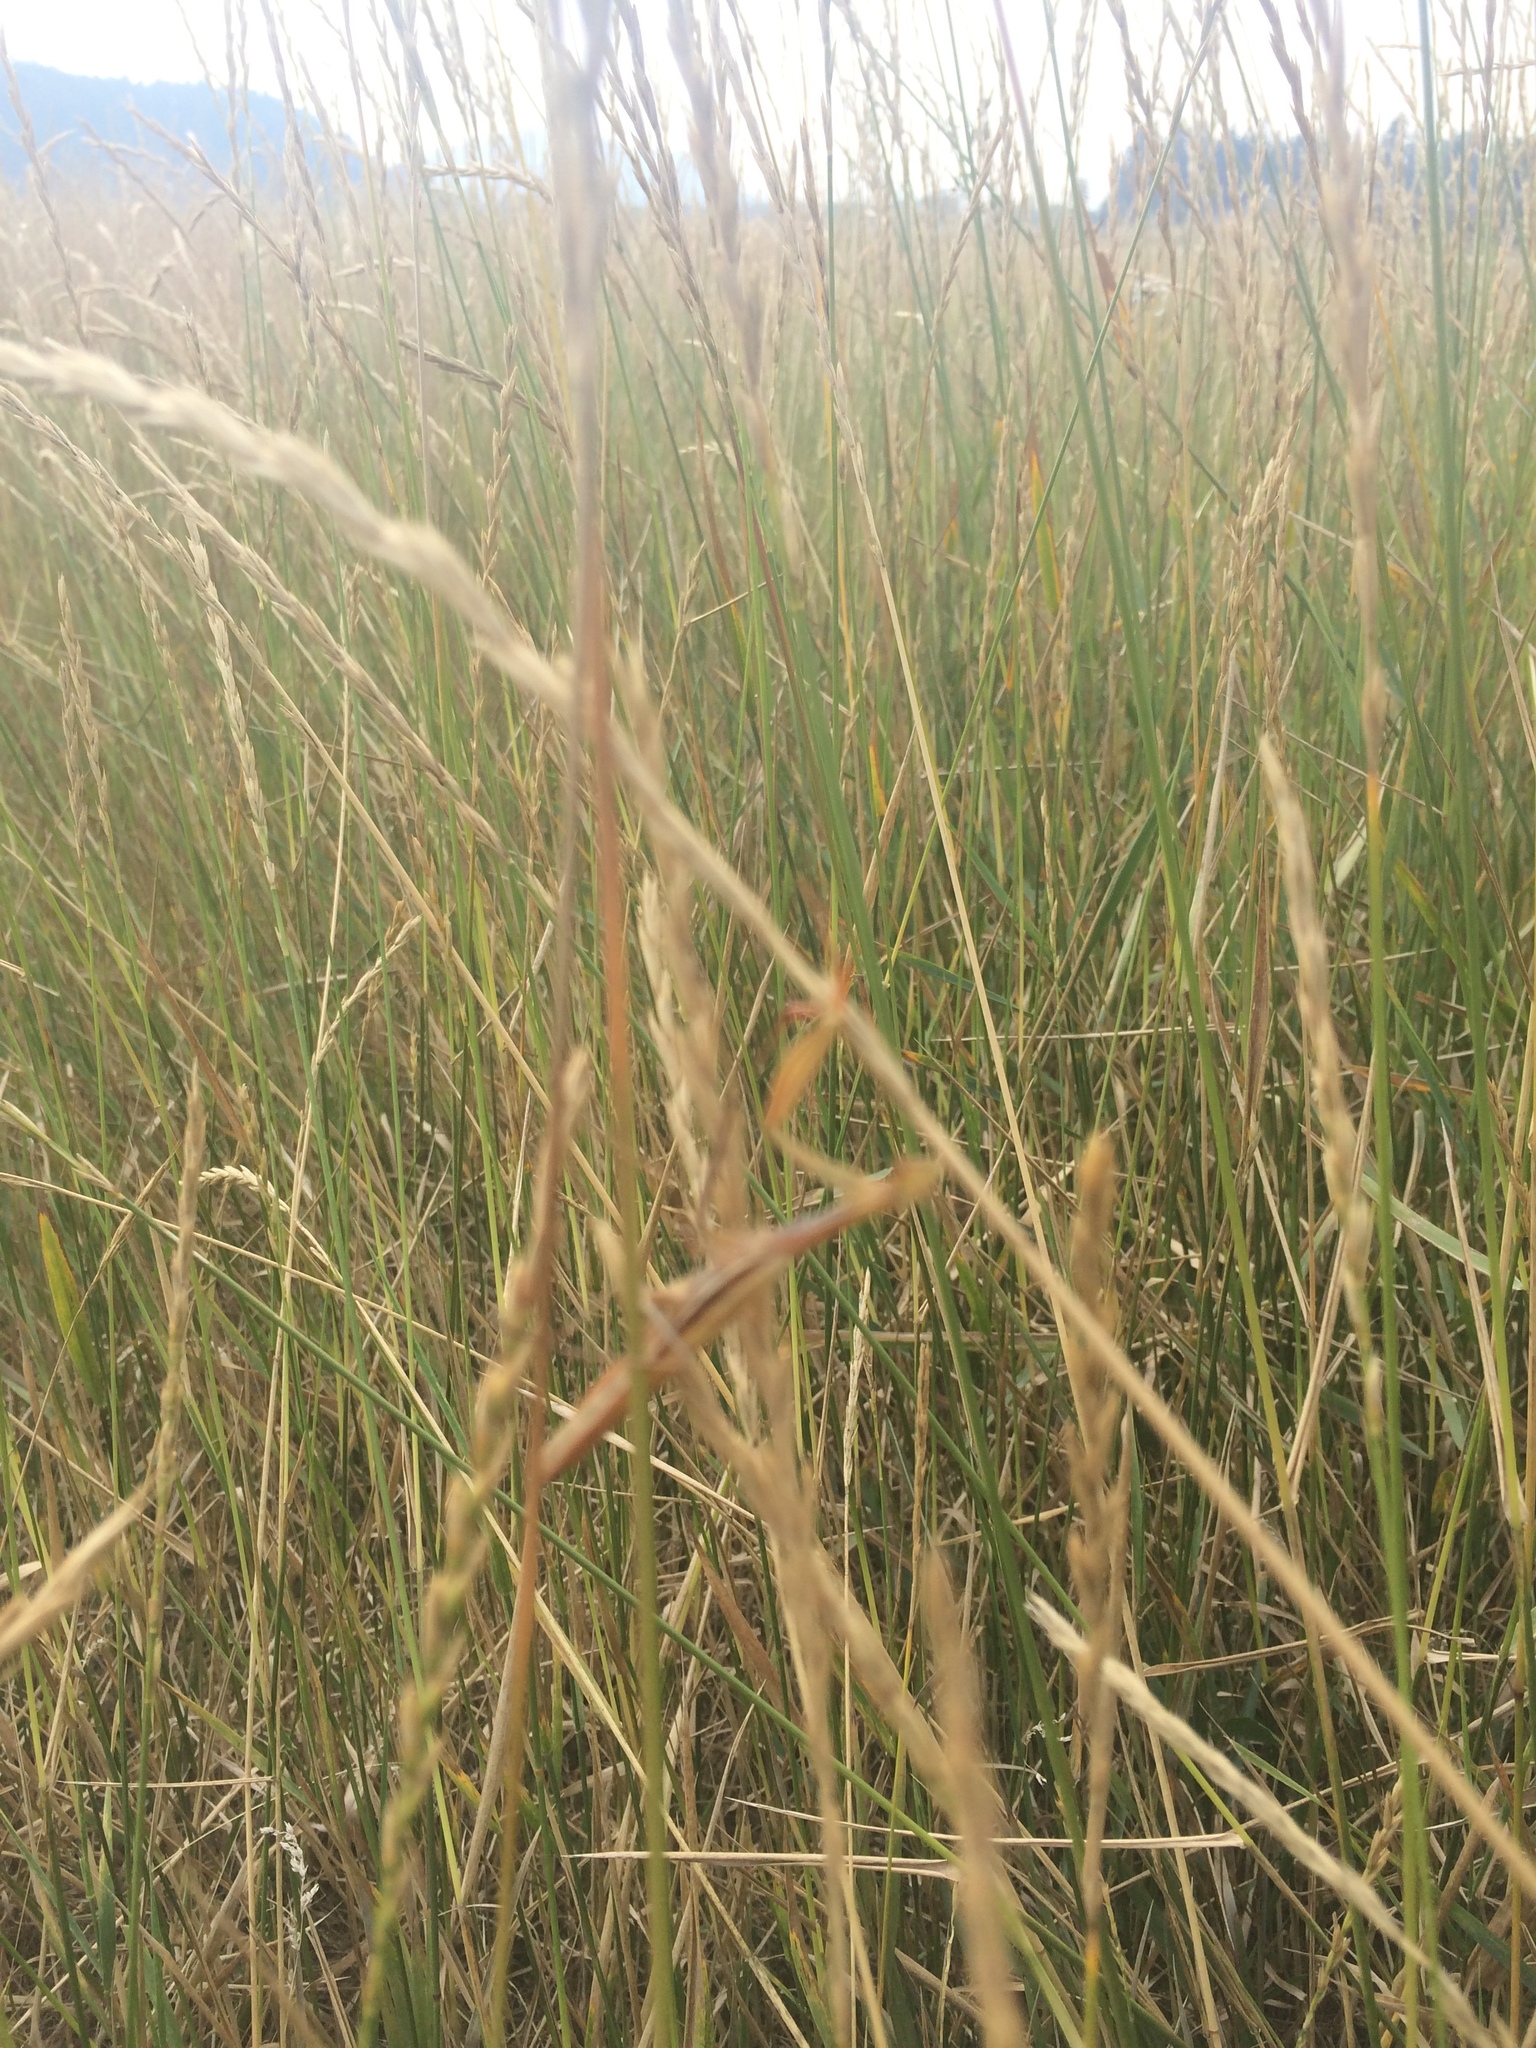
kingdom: Animalia
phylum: Arthropoda
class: Insecta
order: Mantodea
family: Mantidae
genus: Mantis
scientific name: Mantis religiosa
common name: Praying mantis
